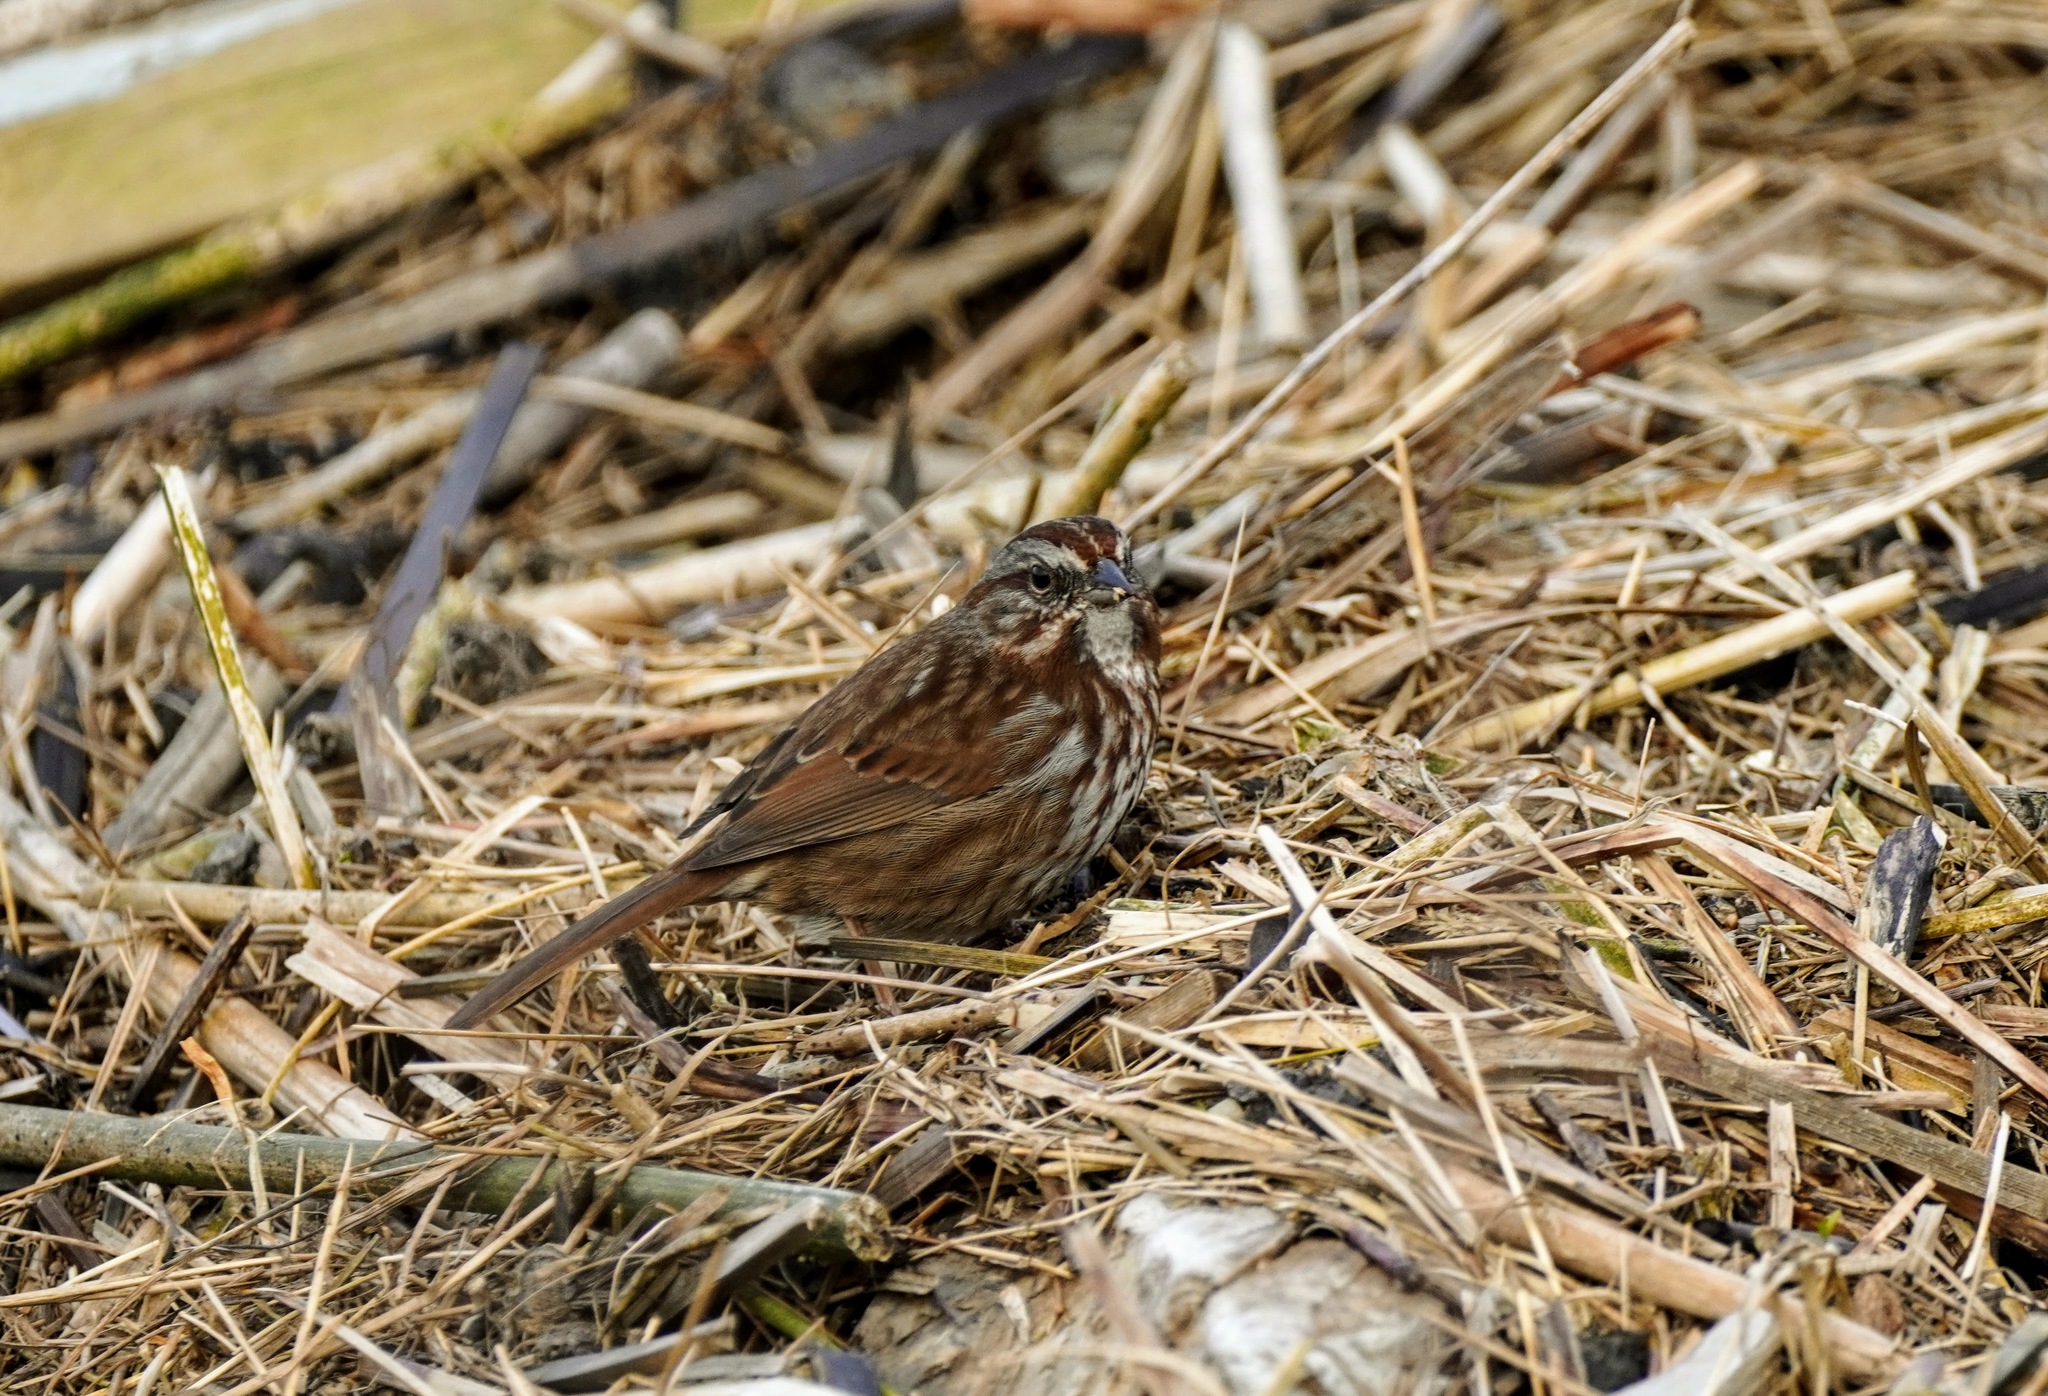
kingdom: Animalia
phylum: Chordata
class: Aves
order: Passeriformes
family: Passerellidae
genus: Melospiza
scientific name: Melospiza melodia
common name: Song sparrow
